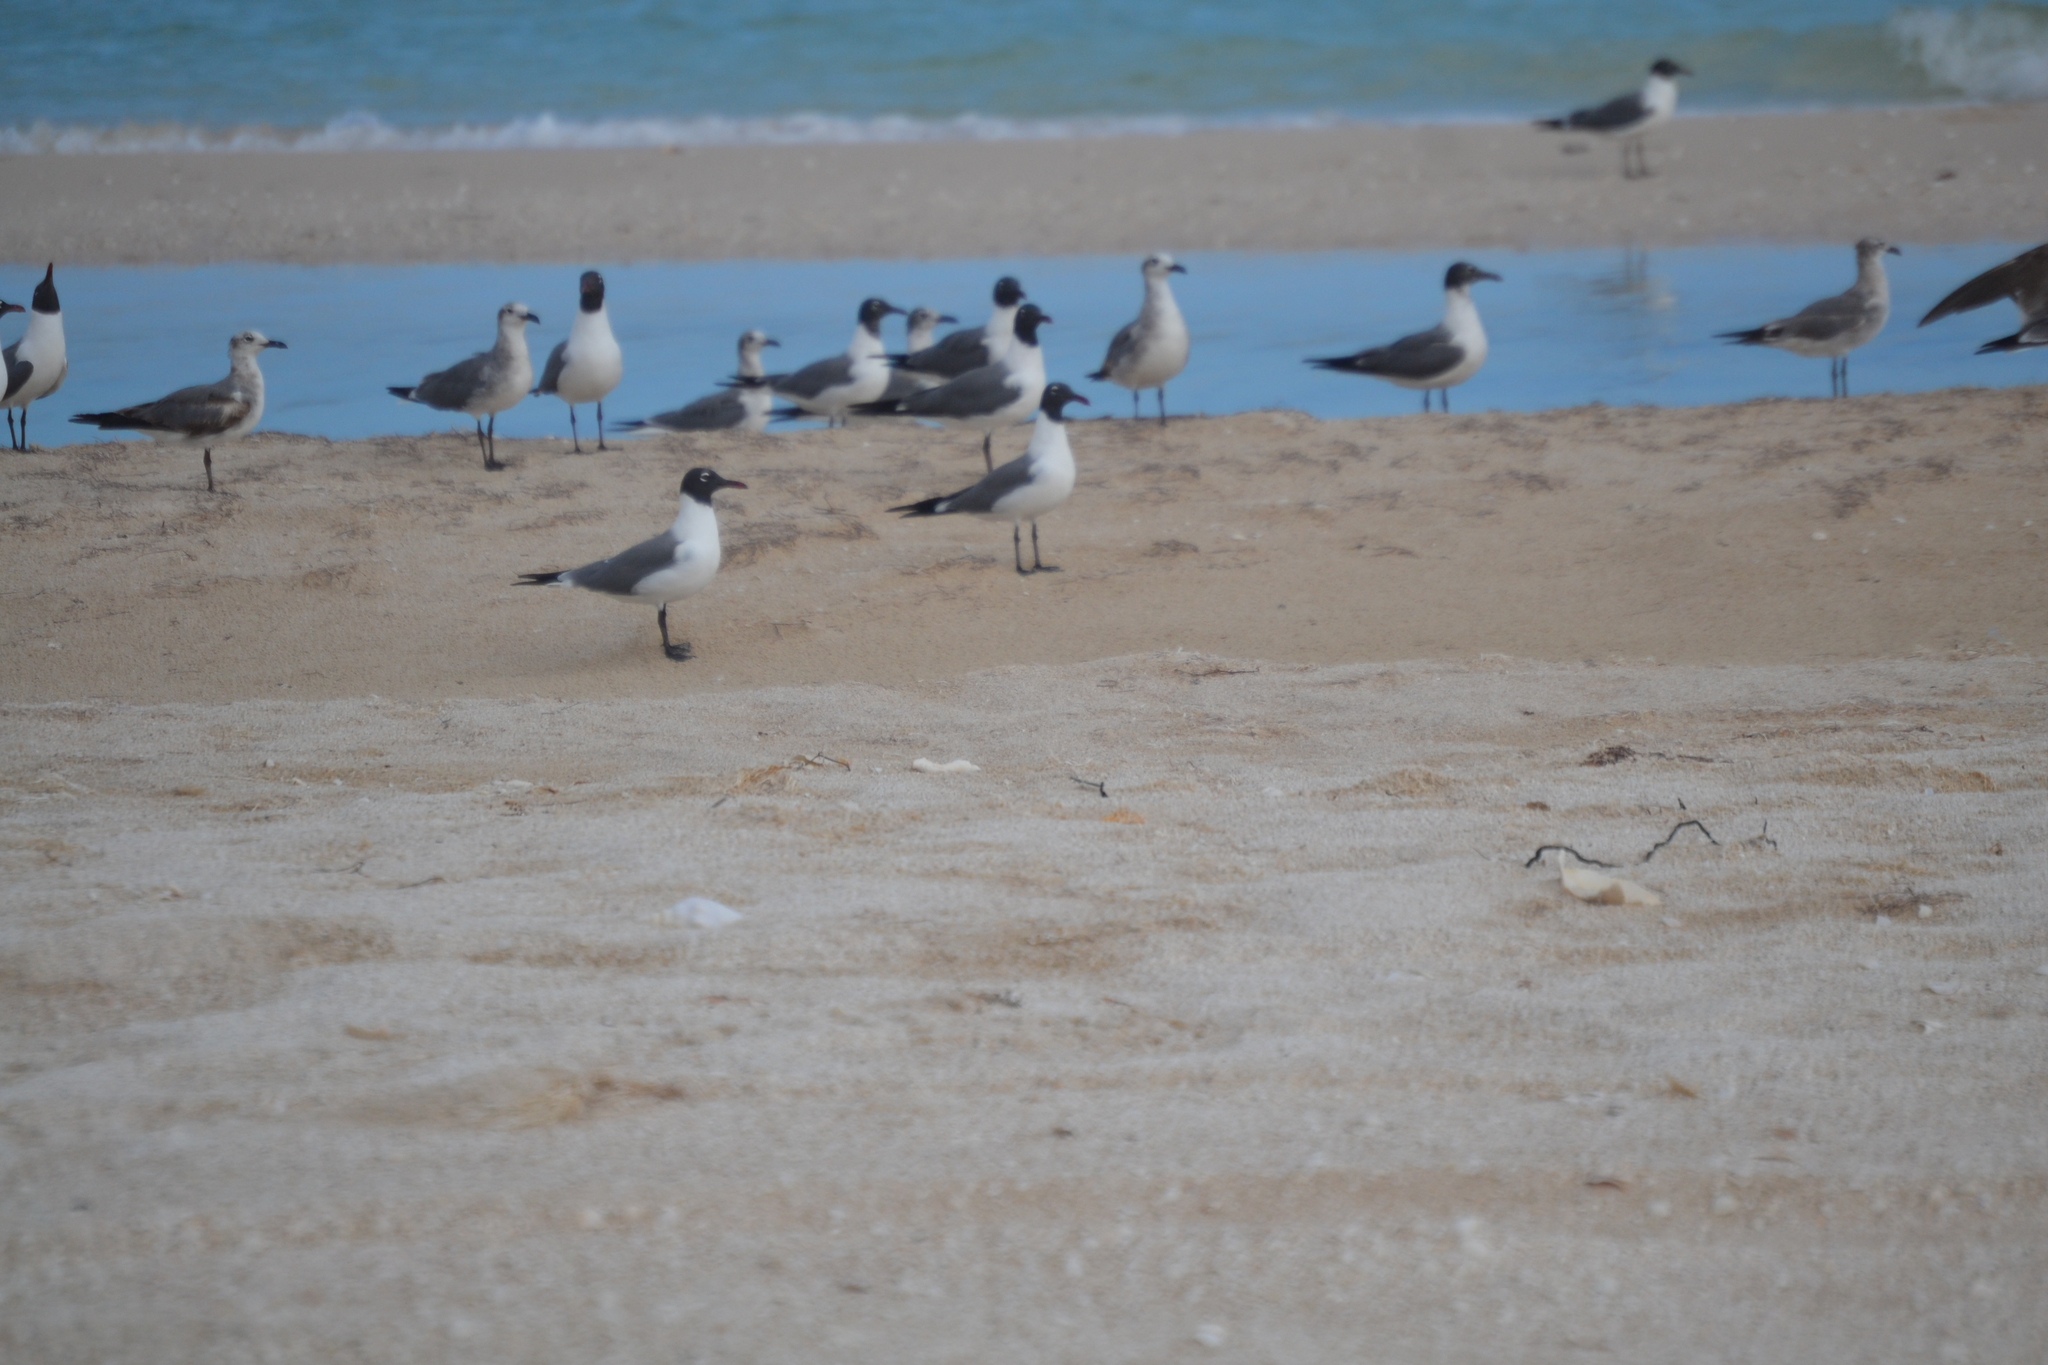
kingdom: Animalia
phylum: Chordata
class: Aves
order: Charadriiformes
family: Laridae
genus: Leucophaeus
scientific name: Leucophaeus atricilla
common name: Laughing gull
